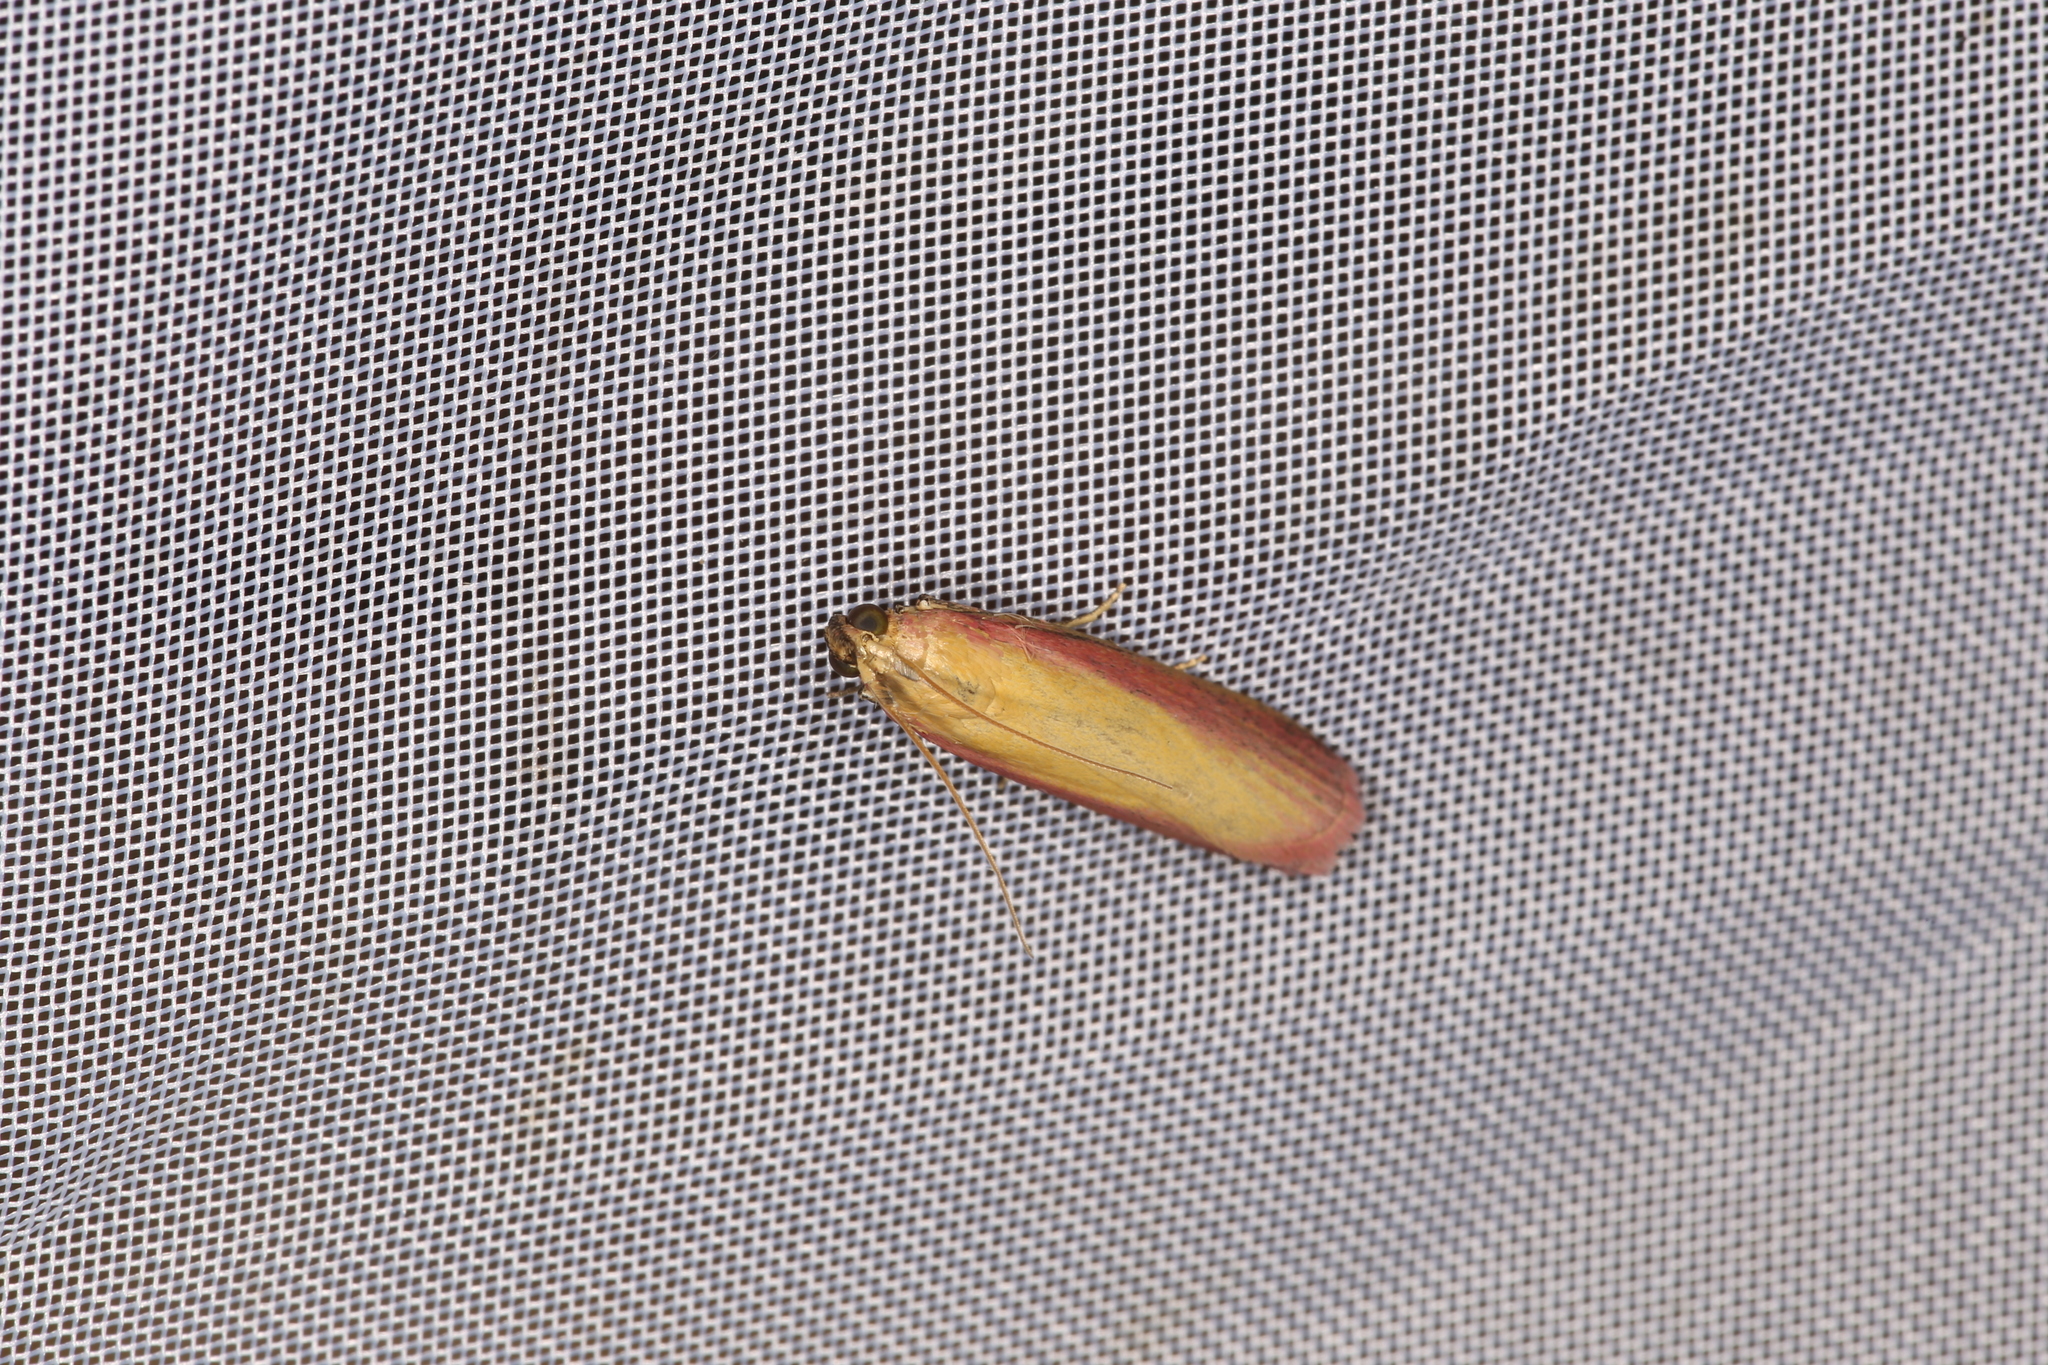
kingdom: Animalia
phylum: Arthropoda
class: Insecta
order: Lepidoptera
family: Pyralidae
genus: Oncocera
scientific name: Oncocera semirubella
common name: Rosy-striped knot-horn
